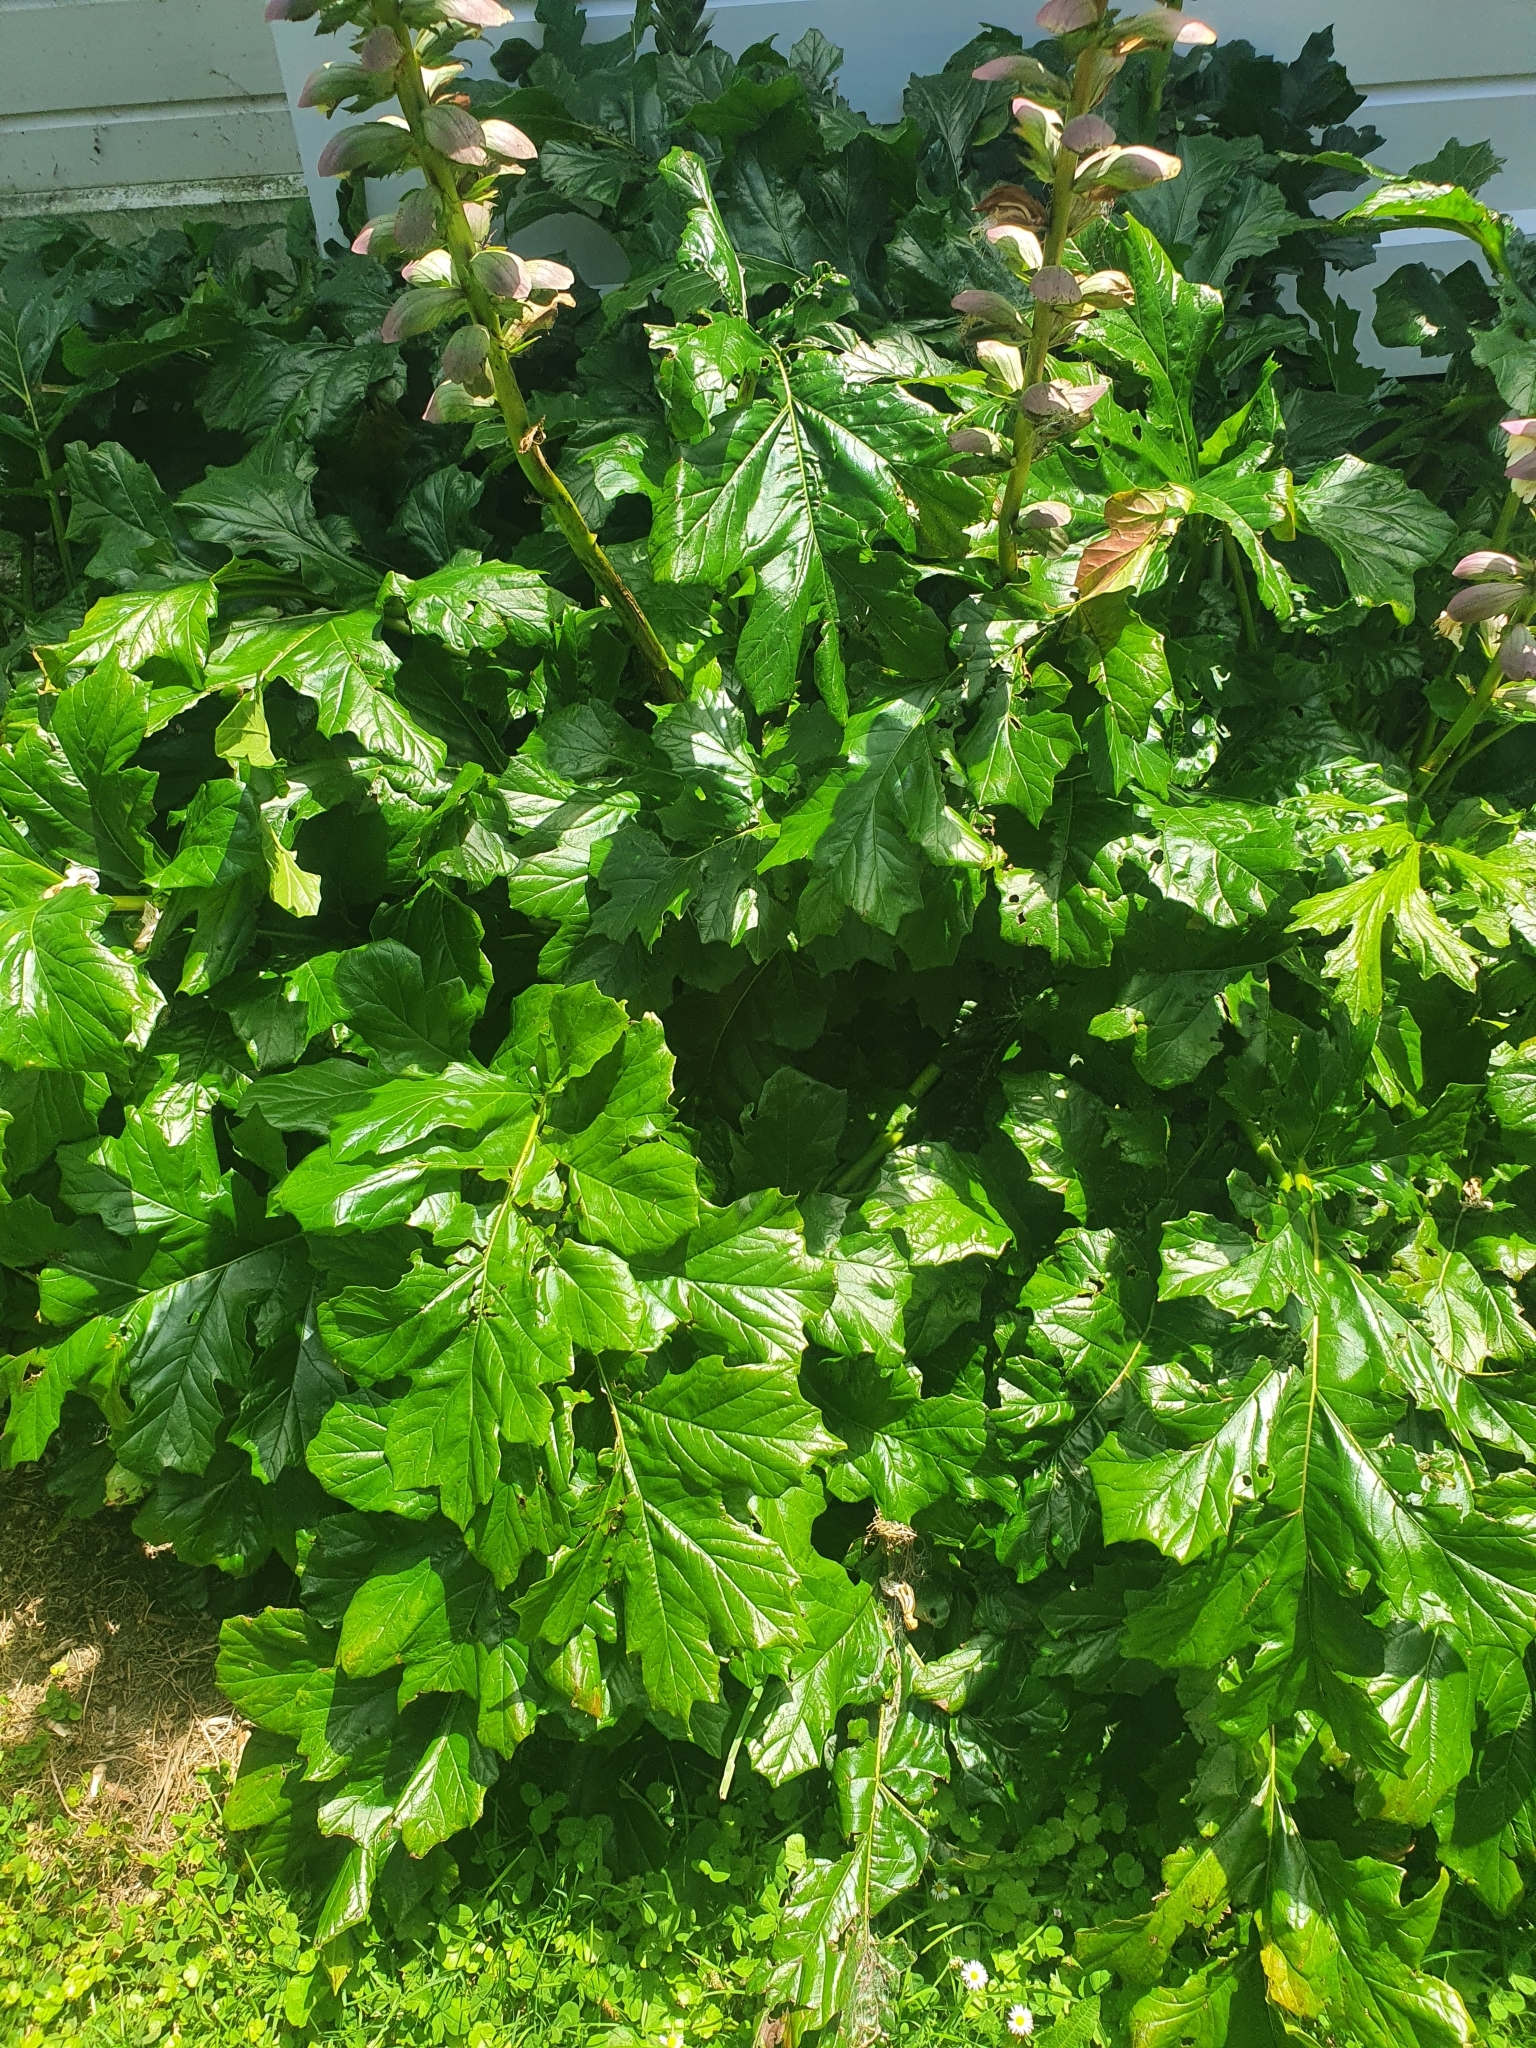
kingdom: Plantae
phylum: Tracheophyta
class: Magnoliopsida
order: Lamiales
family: Acanthaceae
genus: Acanthus
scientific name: Acanthus mollis
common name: Bear's-breech
